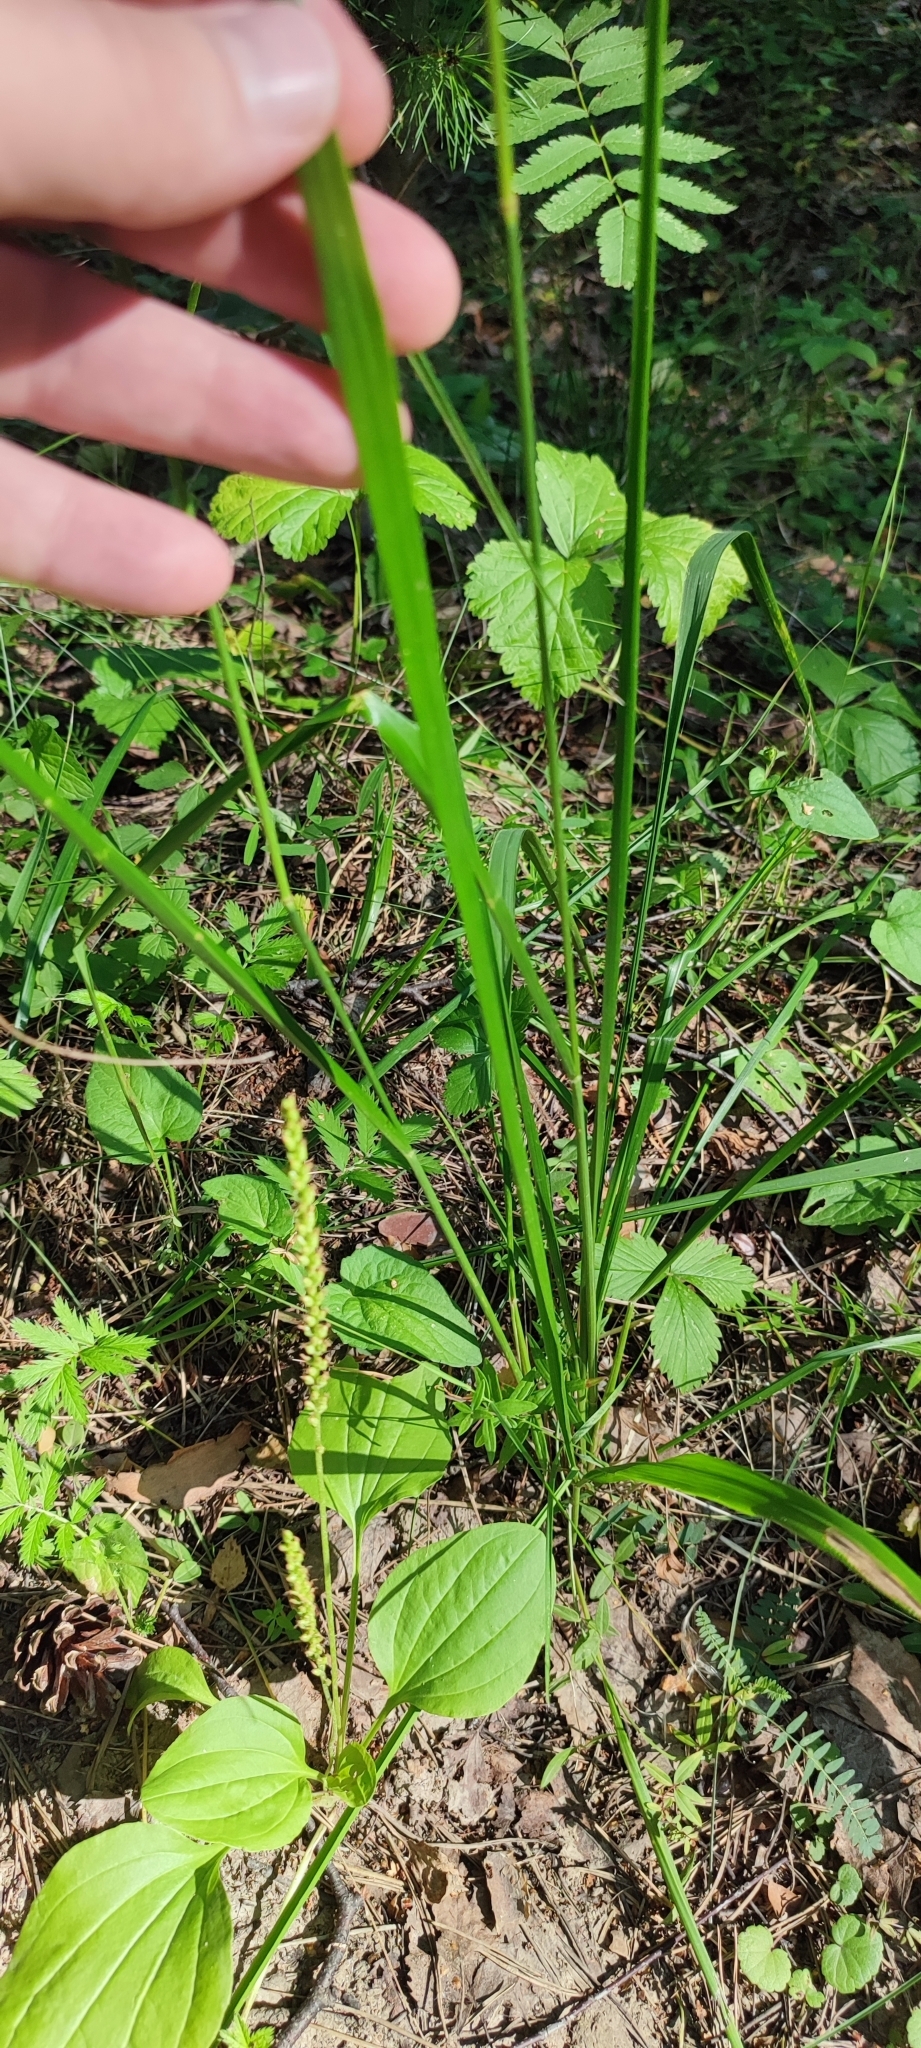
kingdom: Plantae
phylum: Tracheophyta
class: Liliopsida
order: Poales
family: Poaceae
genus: Calamagrostis
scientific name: Calamagrostis arundinacea
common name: Metskastik
